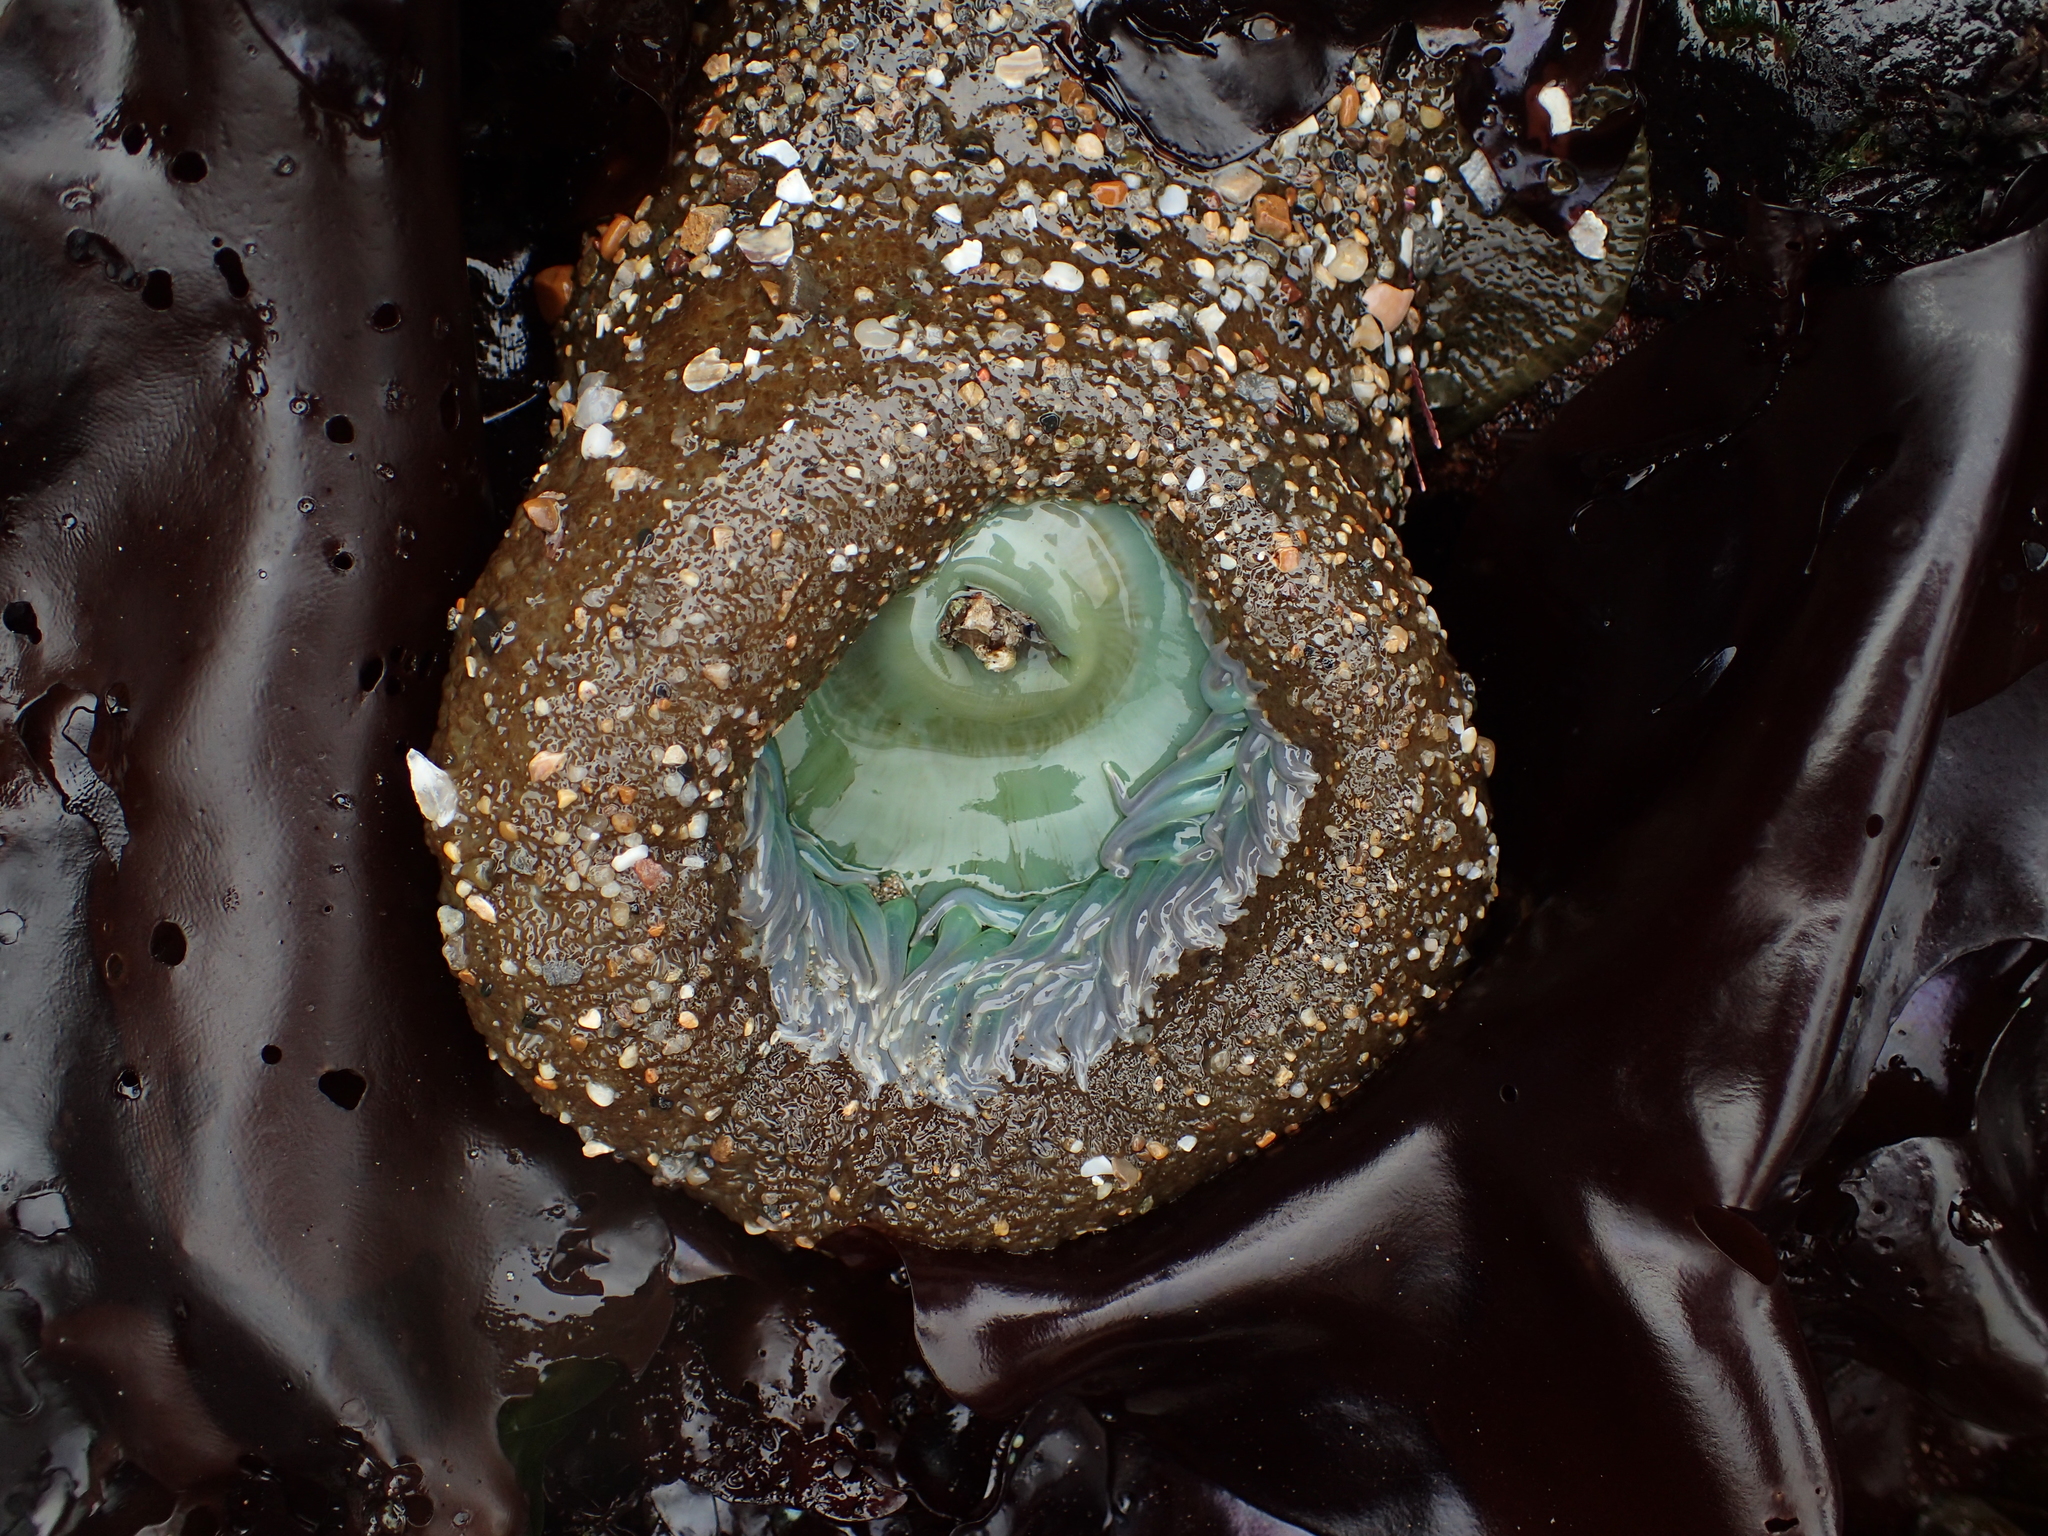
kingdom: Animalia
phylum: Cnidaria
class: Anthozoa
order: Actiniaria
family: Actiniidae
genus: Anthopleura
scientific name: Anthopleura xanthogrammica
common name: Giant green anemone
